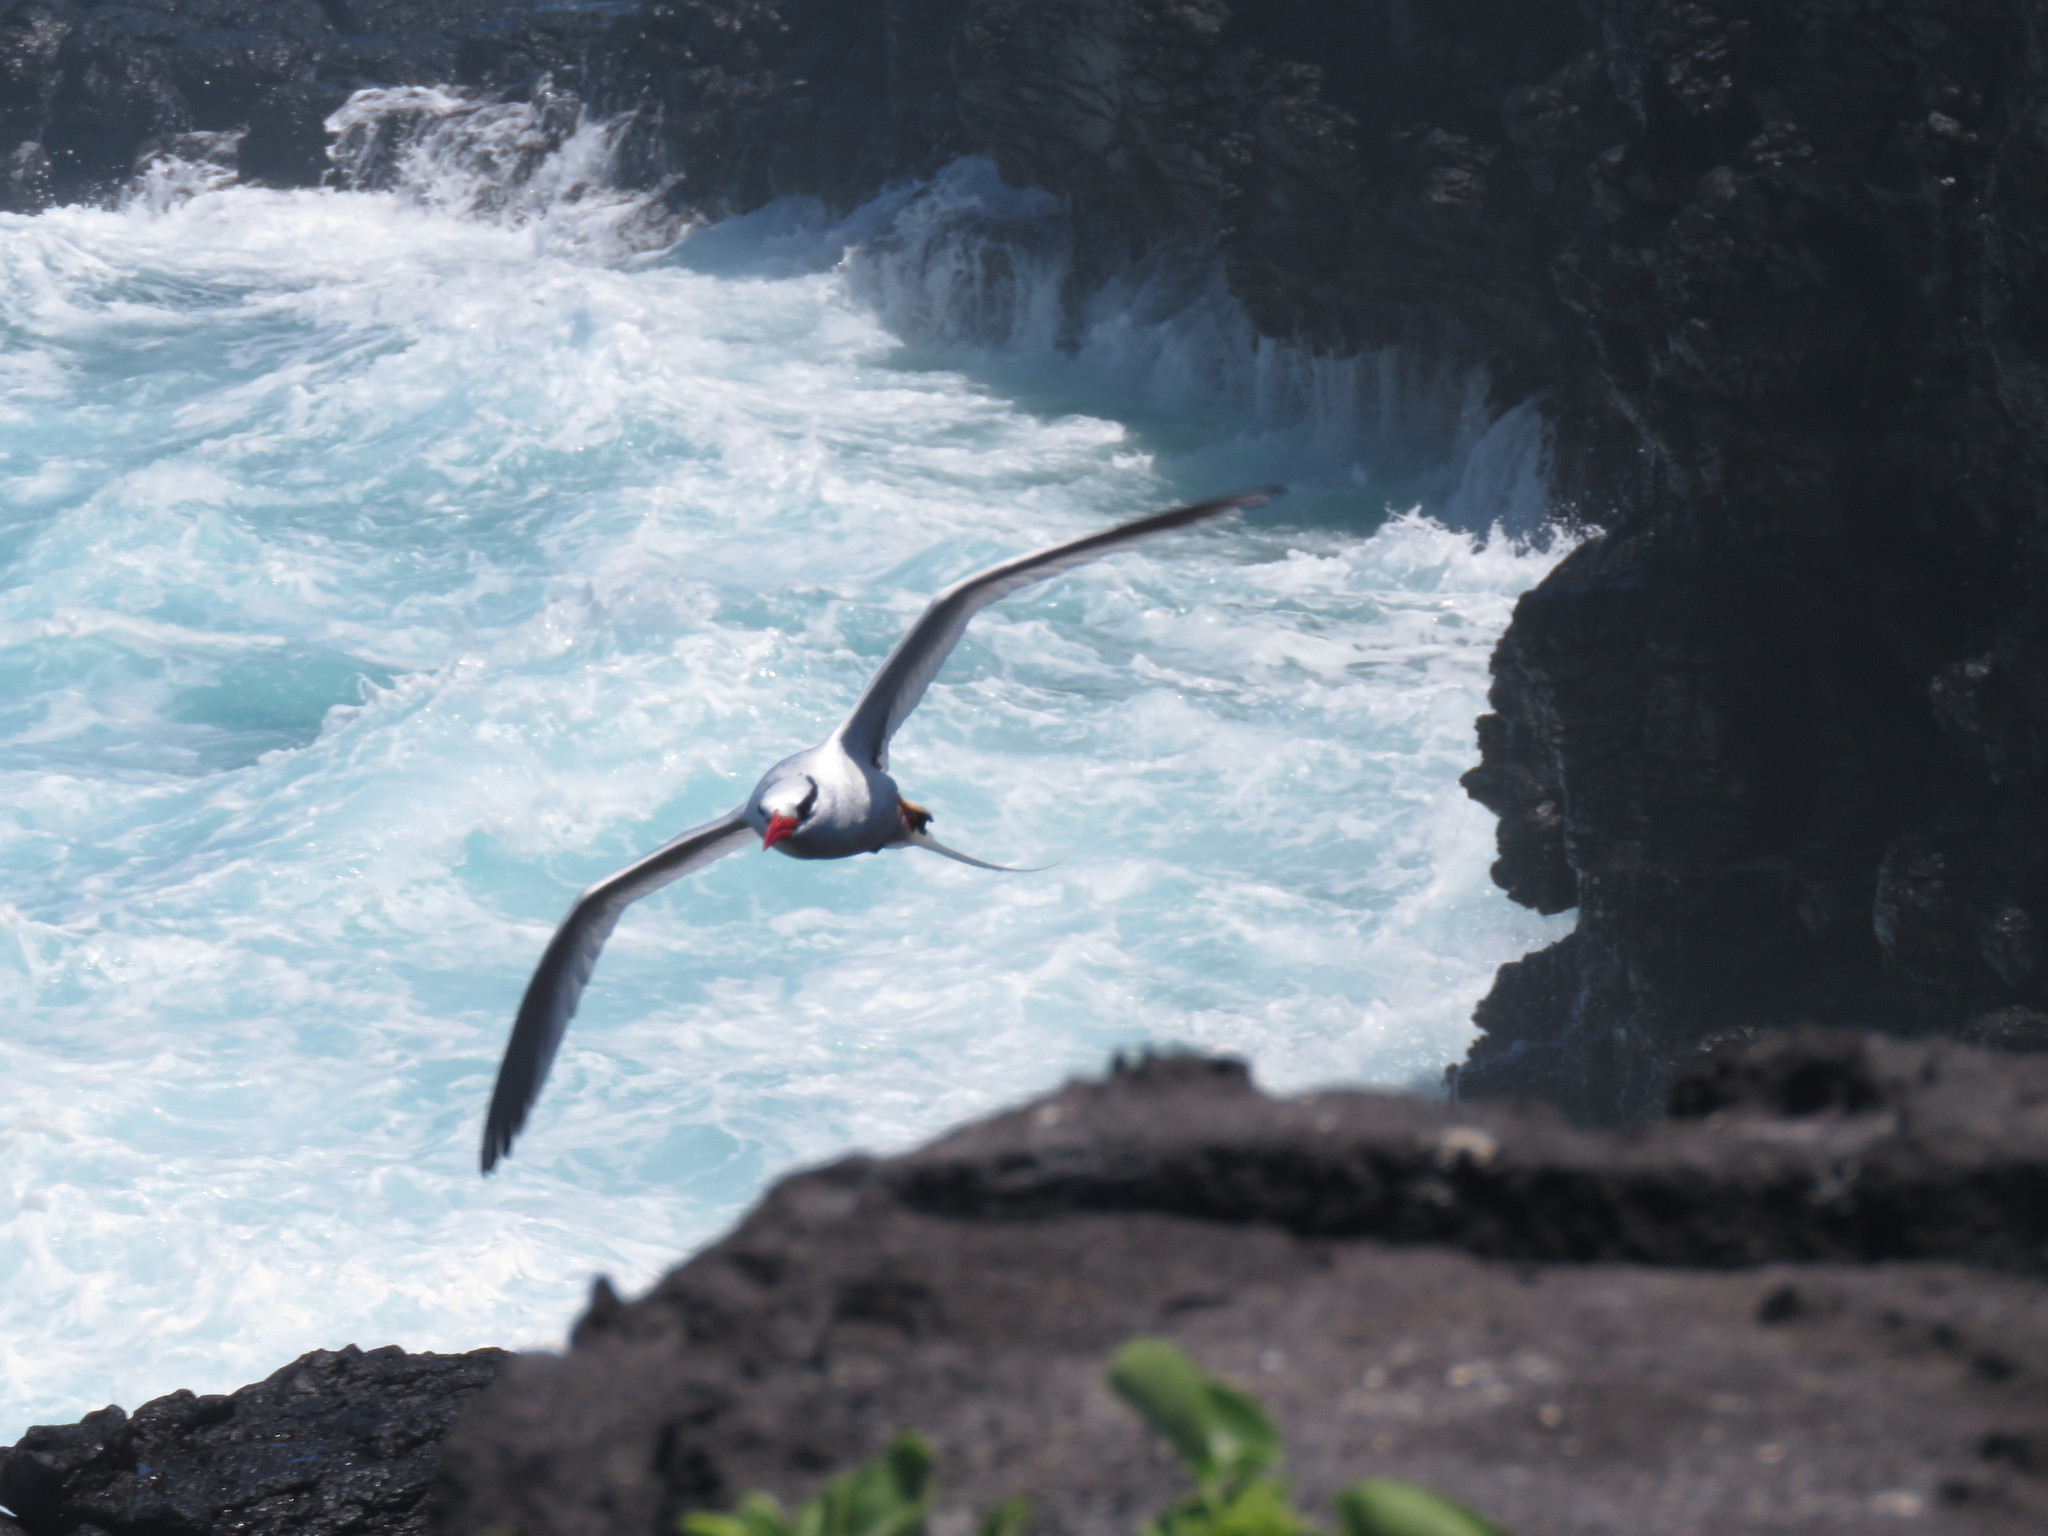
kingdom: Animalia
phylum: Chordata
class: Aves
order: Phaethontiformes
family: Phaethontidae
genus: Phaethon
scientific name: Phaethon aethereus
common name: Red-billed tropicbird
